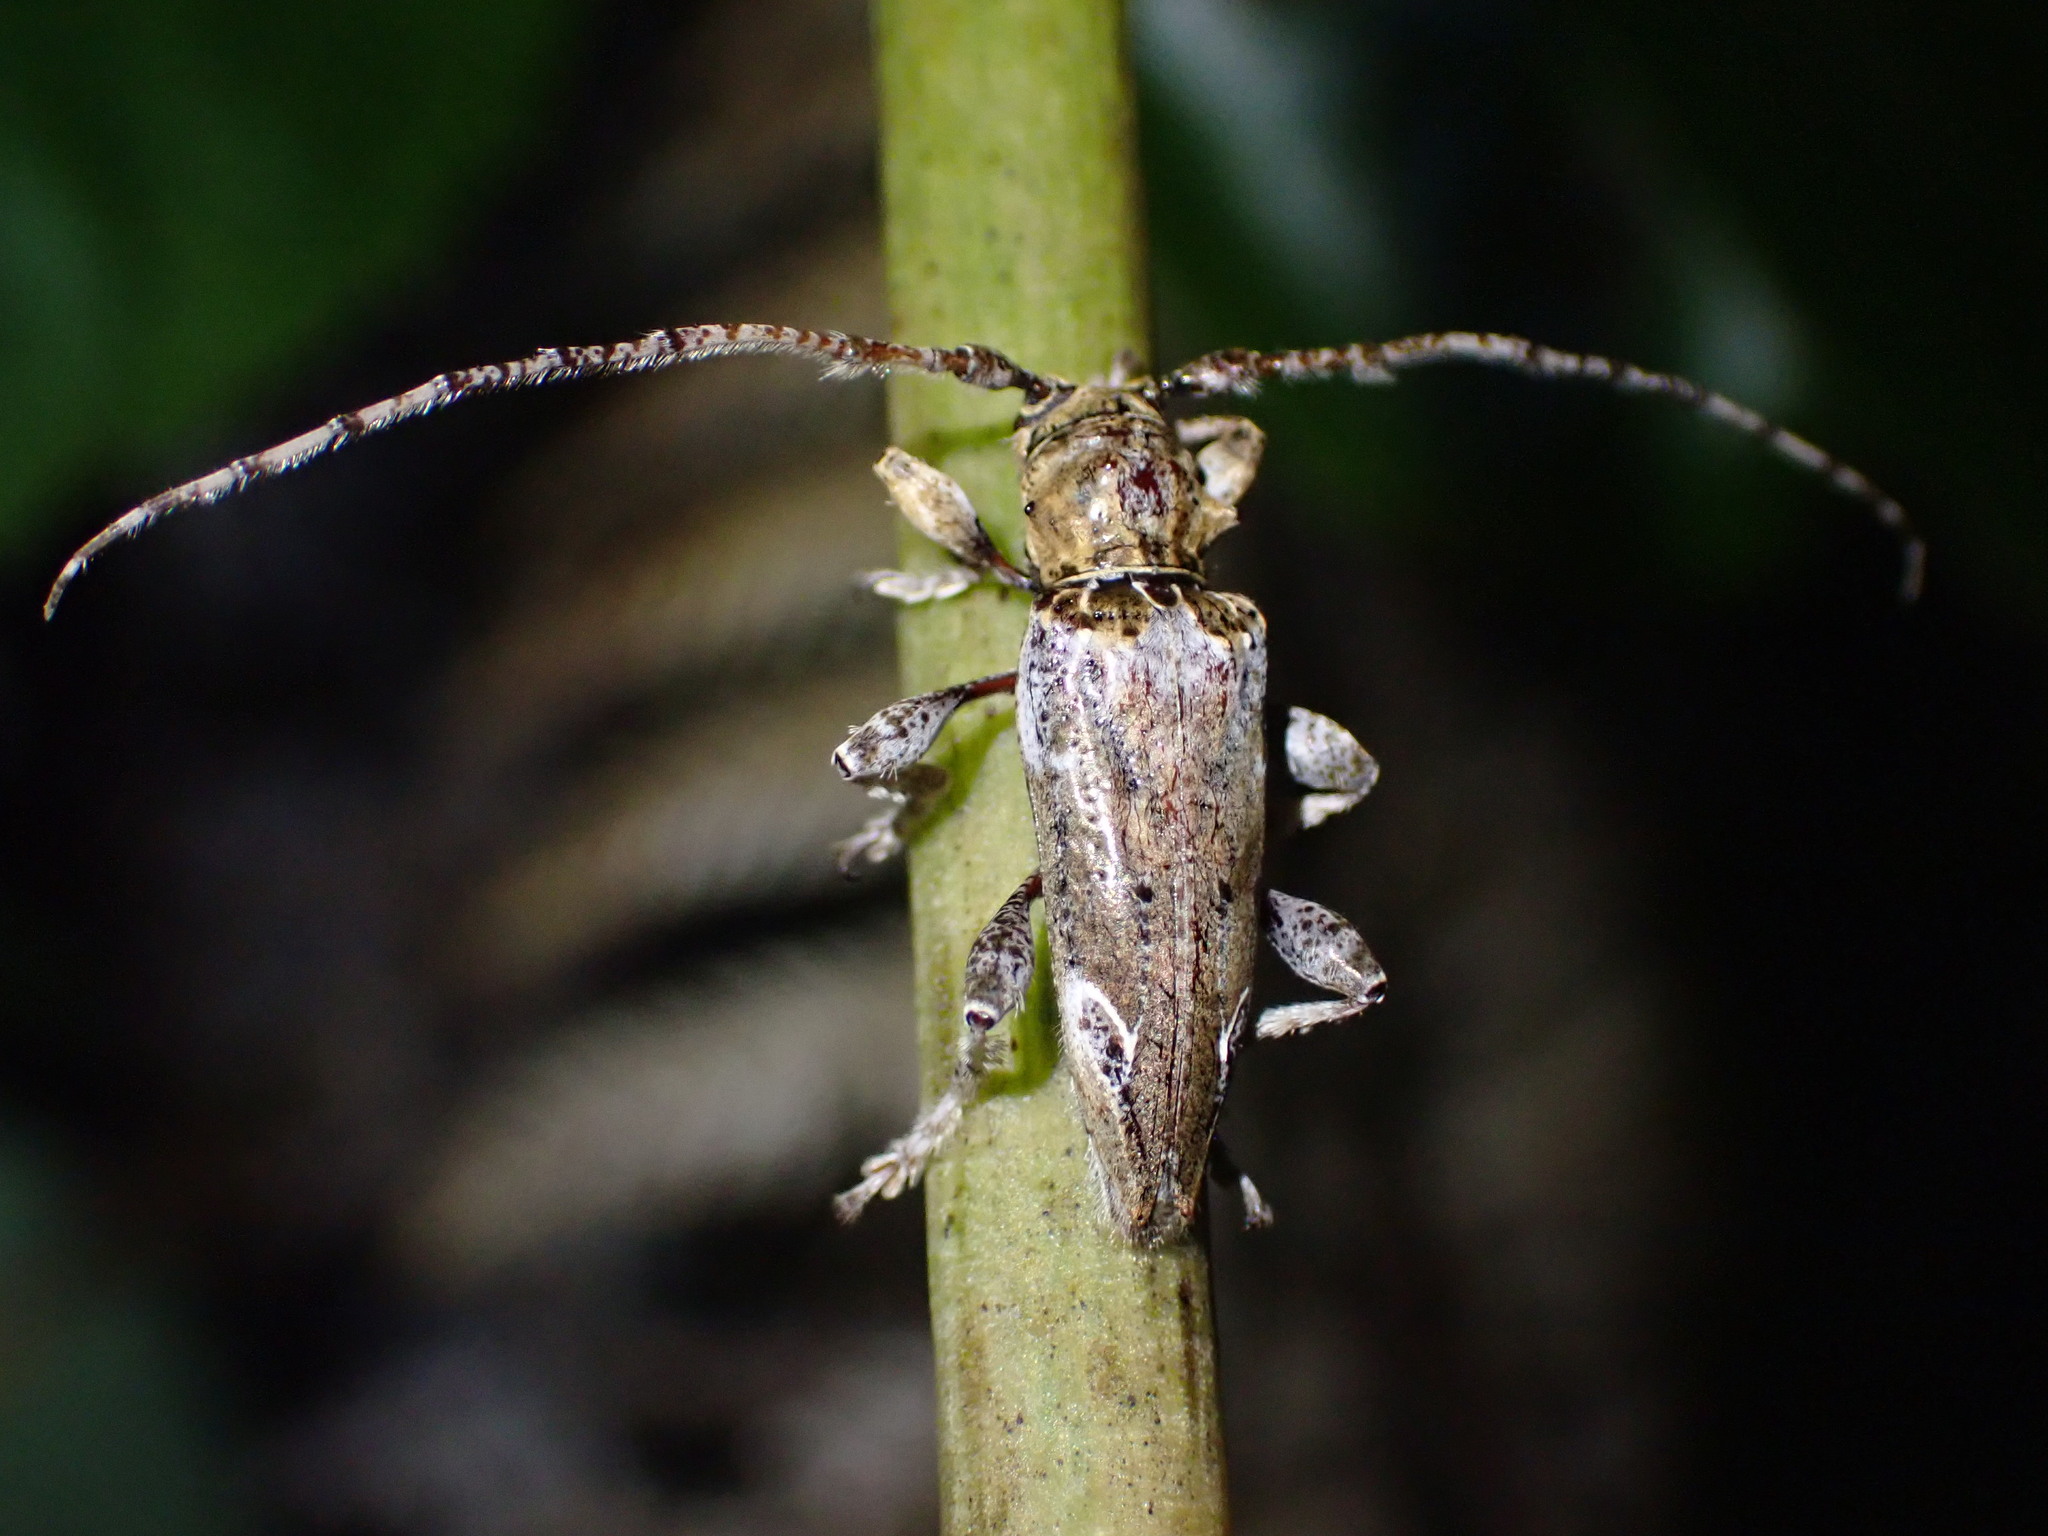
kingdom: Animalia
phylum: Arthropoda
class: Insecta
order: Coleoptera
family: Cerambycidae
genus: Tetrorea
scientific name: Tetrorea cilipes
